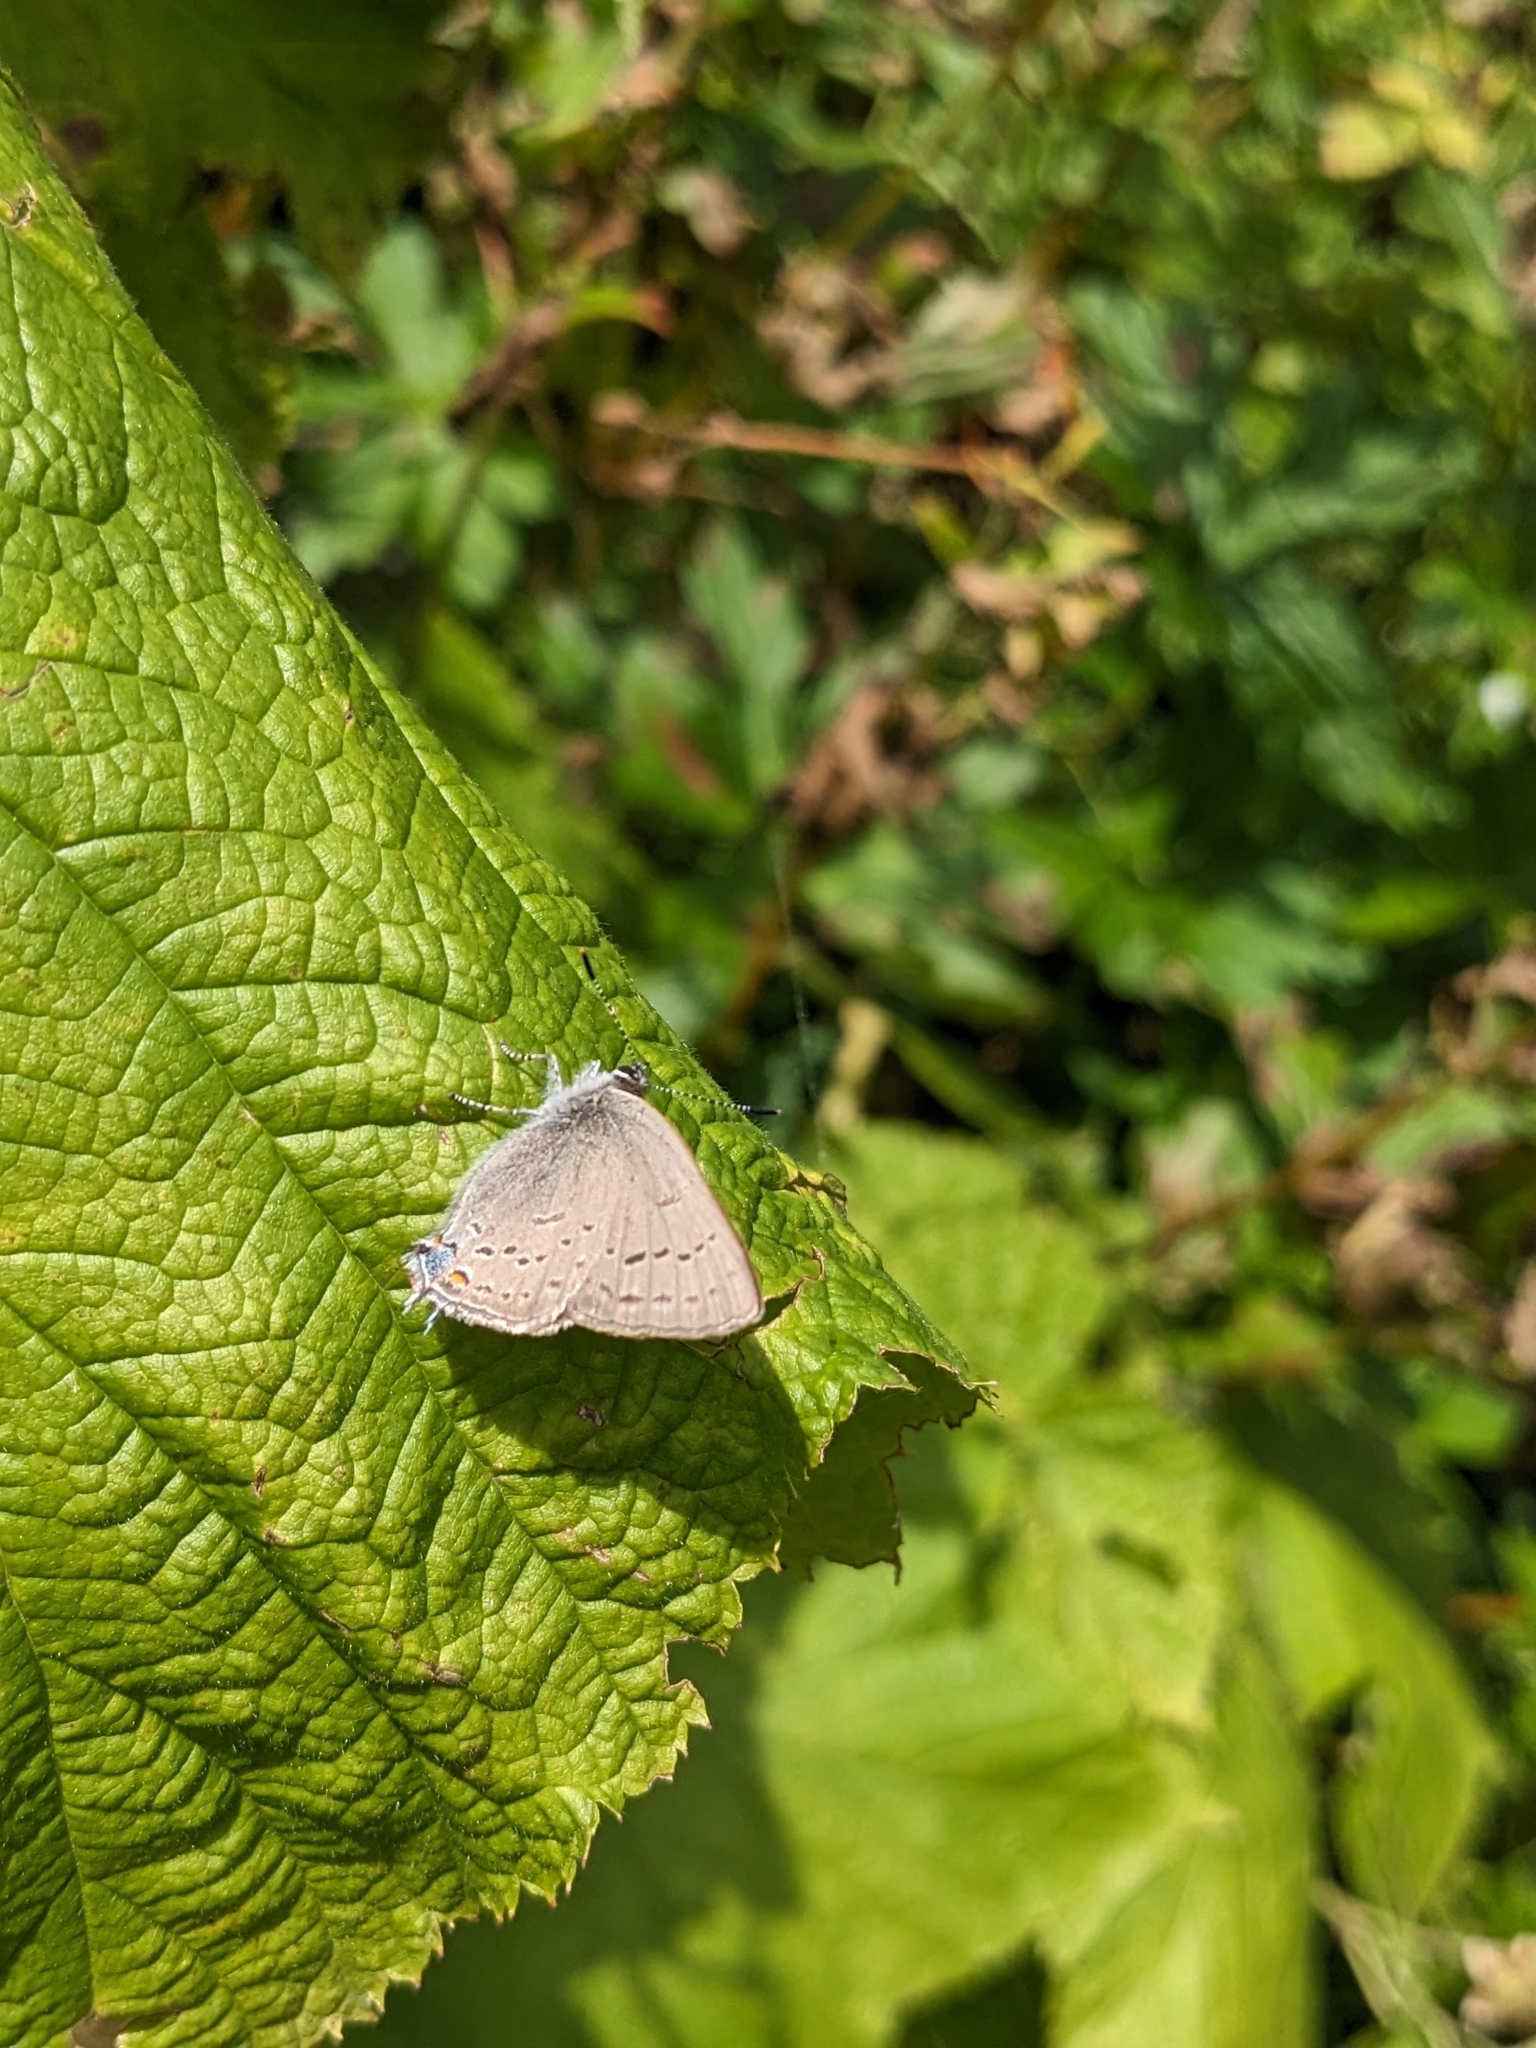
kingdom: Animalia
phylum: Arthropoda
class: Insecta
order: Lepidoptera
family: Lycaenidae
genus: Strymon
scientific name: Strymon sylvinus
